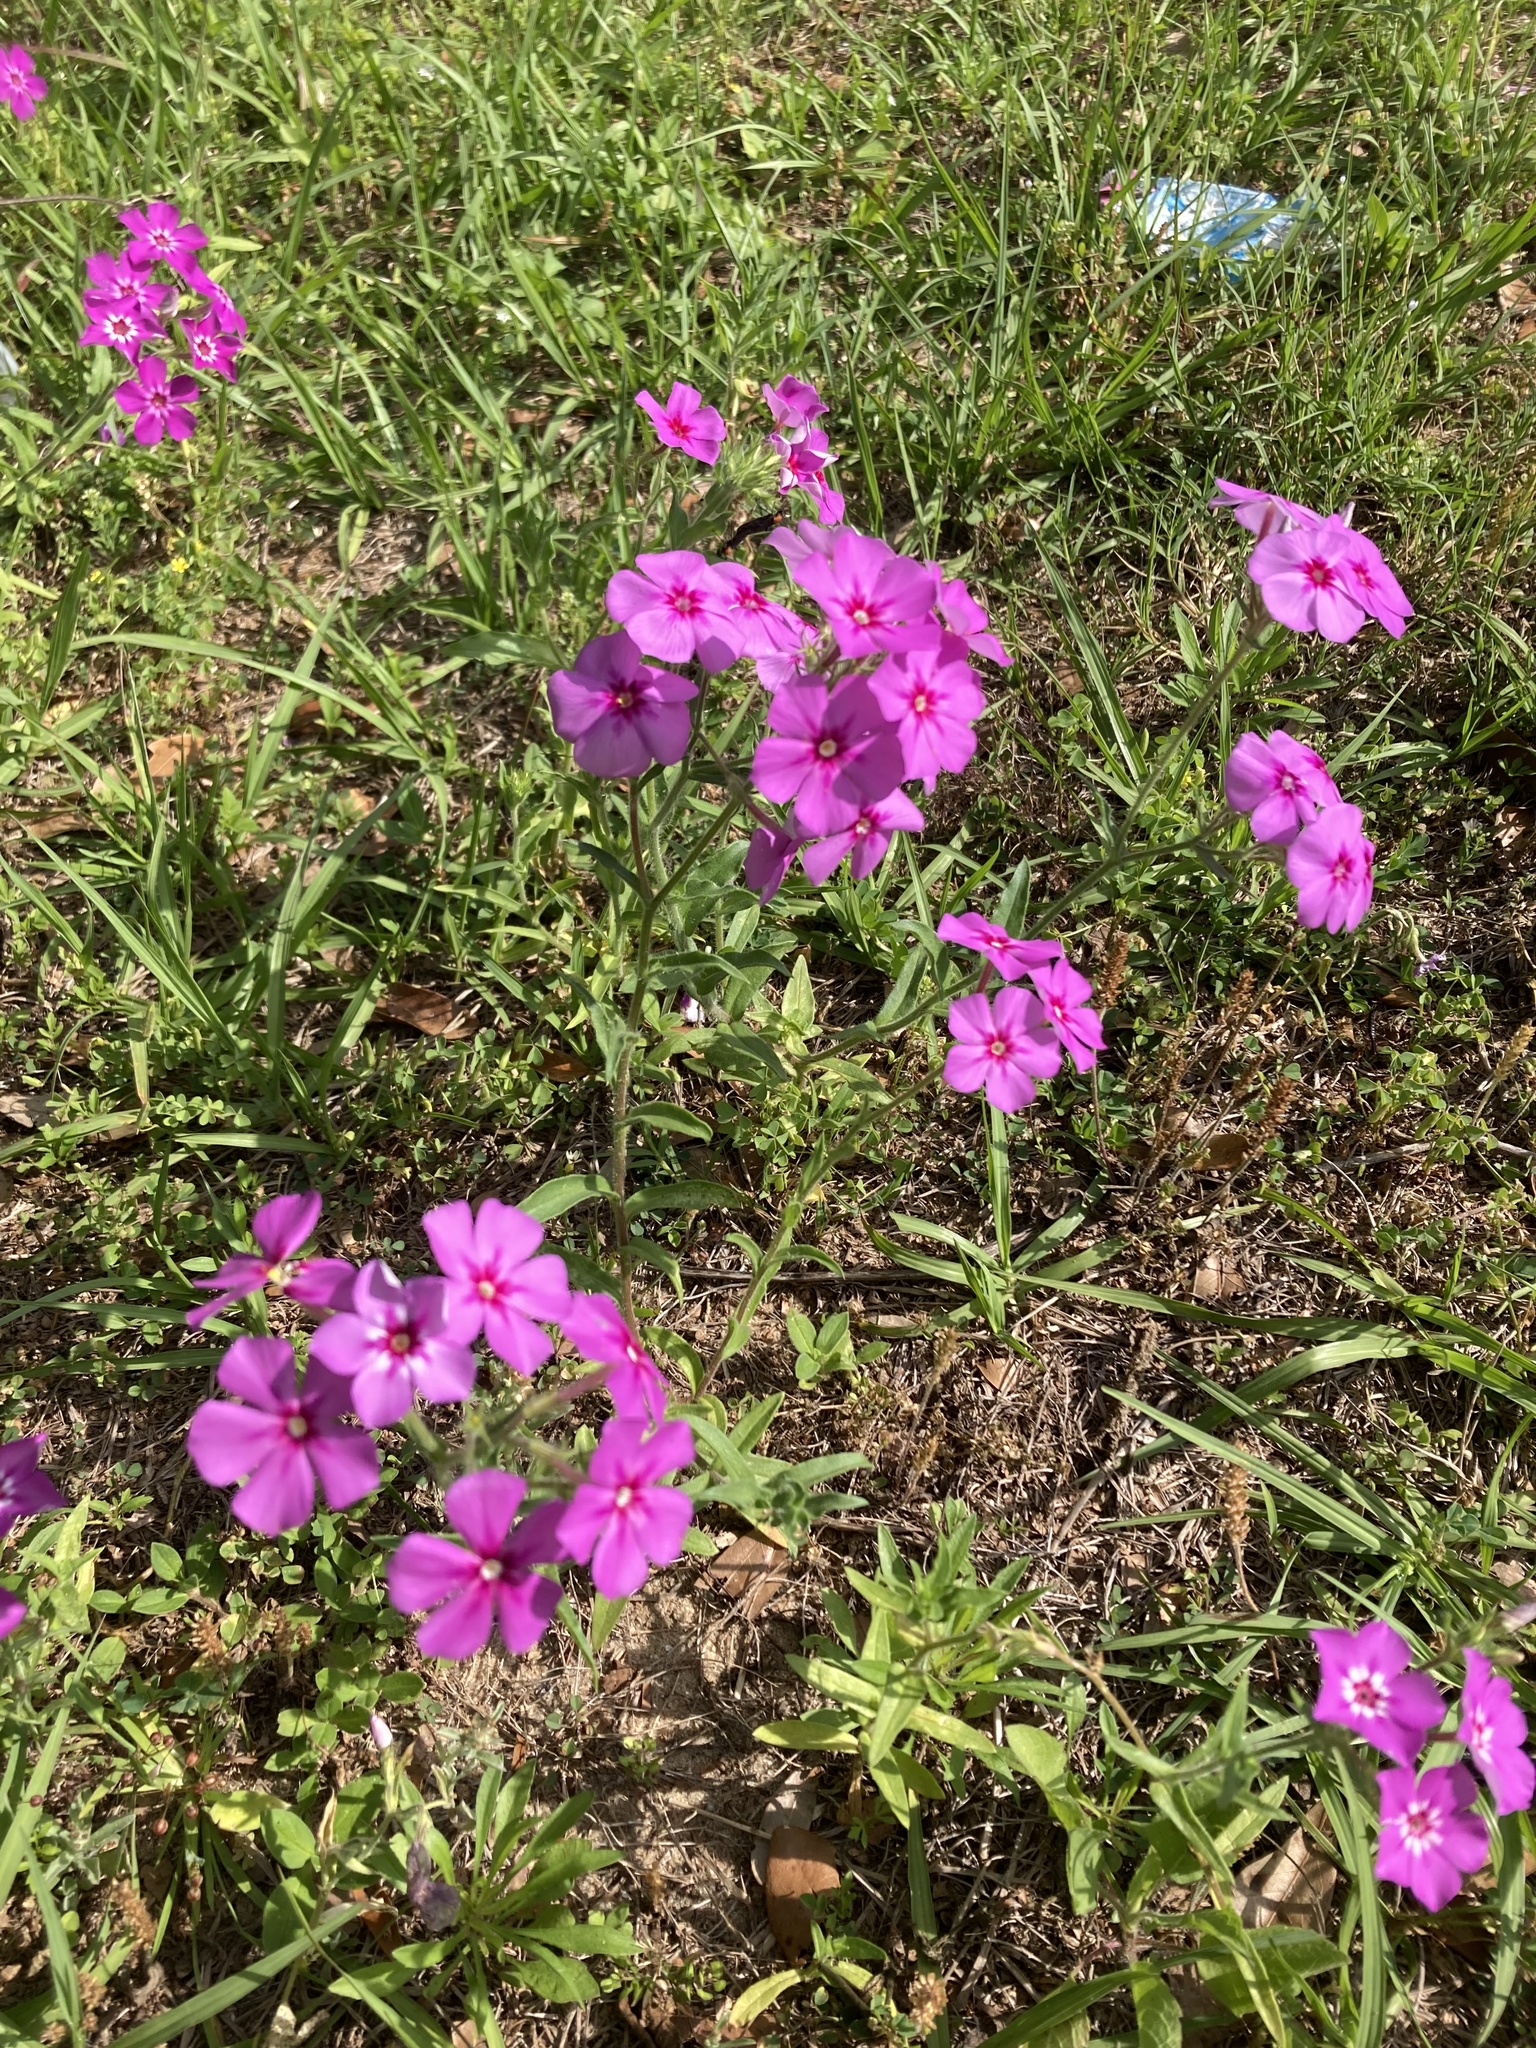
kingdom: Plantae
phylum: Tracheophyta
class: Magnoliopsida
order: Ericales
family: Polemoniaceae
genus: Phlox
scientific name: Phlox drummondii
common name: Drummond's phlox
